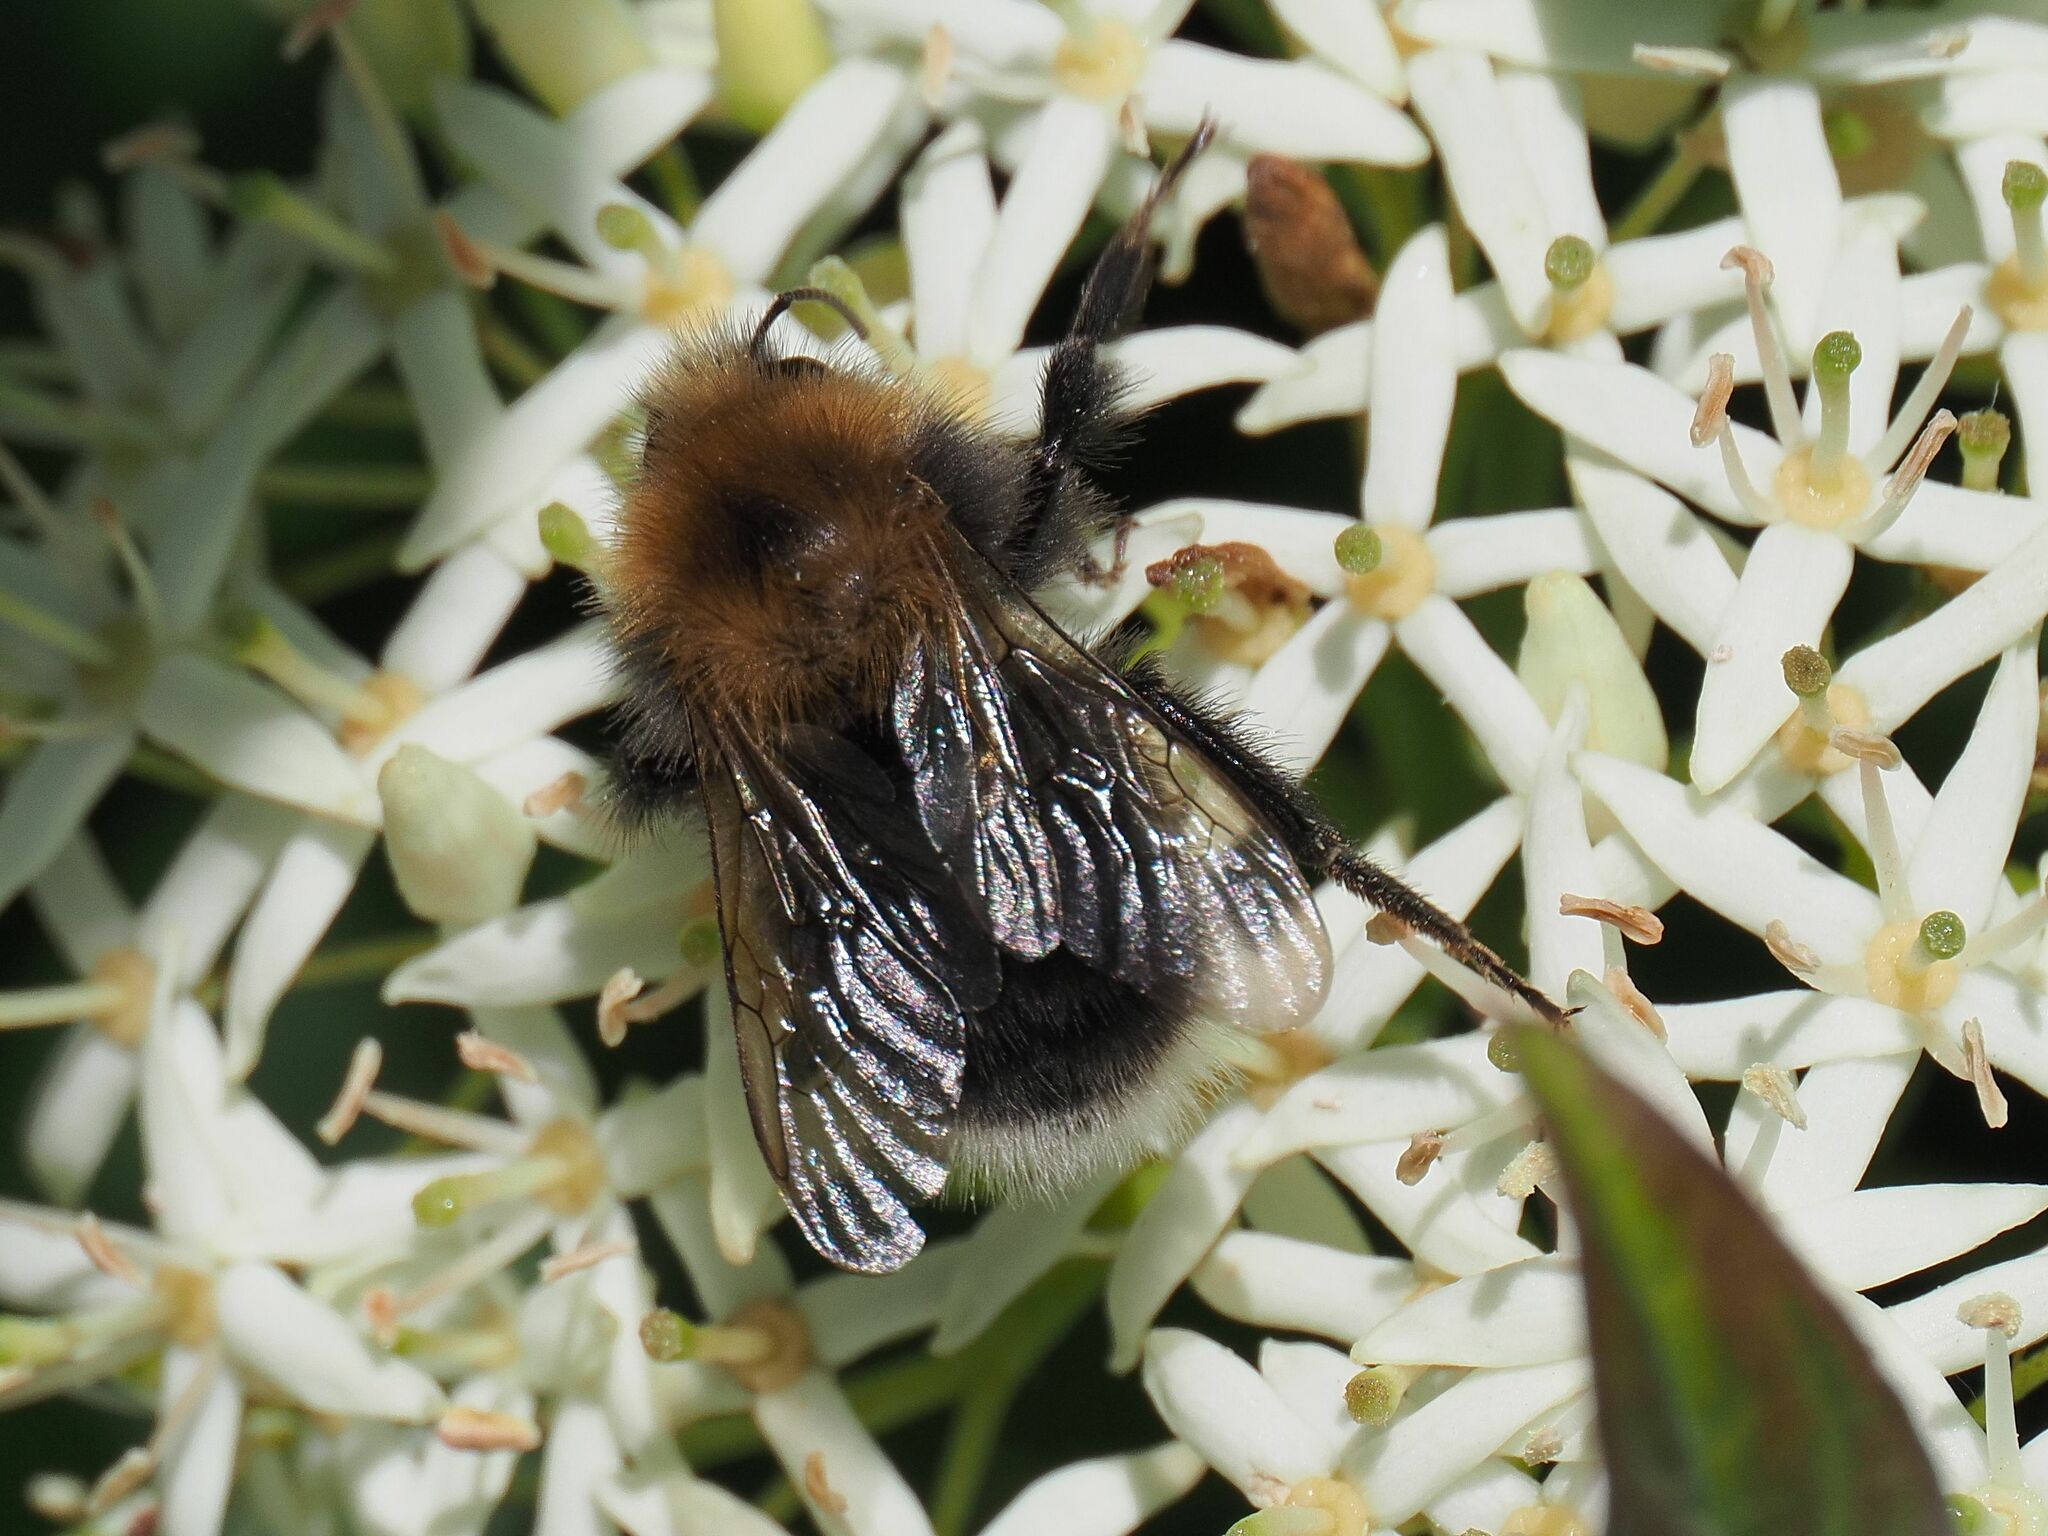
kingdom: Animalia
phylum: Arthropoda
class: Insecta
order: Hymenoptera
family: Apidae
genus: Bombus
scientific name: Bombus hypnorum
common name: New garden bumblebee
